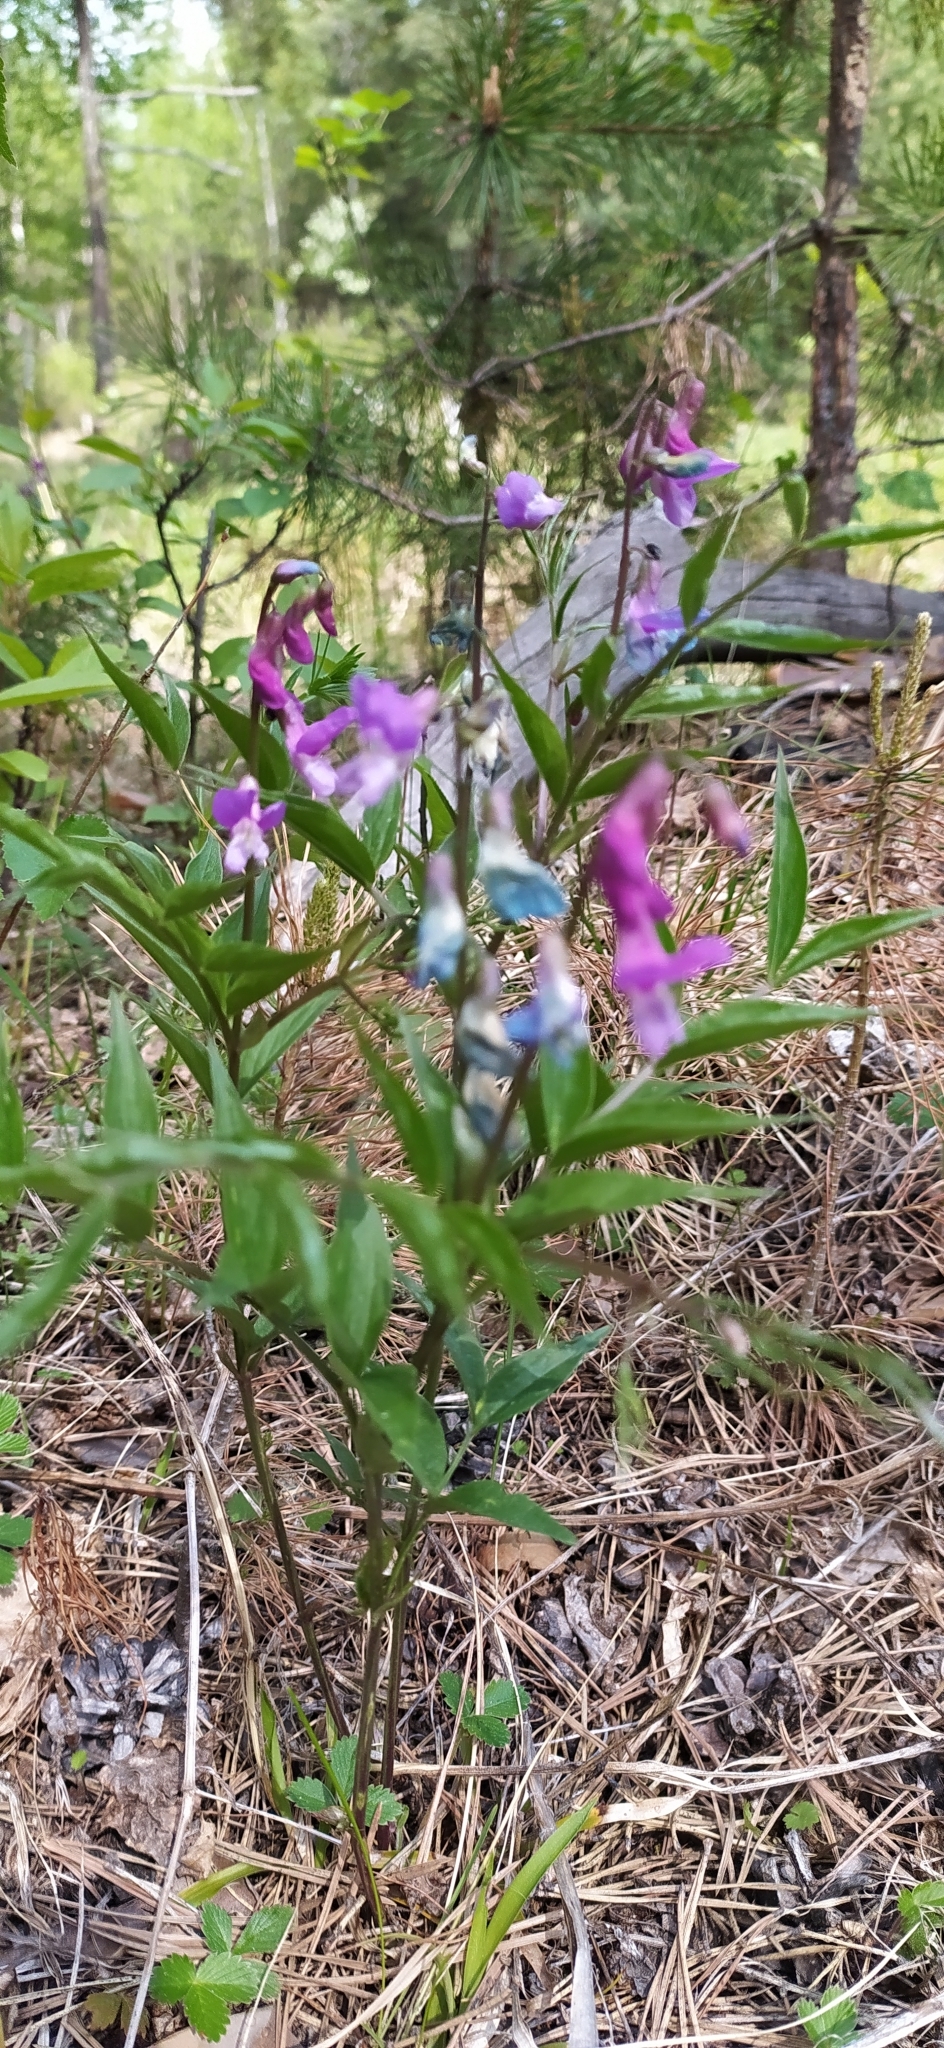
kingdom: Plantae
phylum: Tracheophyta
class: Magnoliopsida
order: Fabales
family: Fabaceae
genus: Lathyrus
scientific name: Lathyrus vernus
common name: Spring pea
